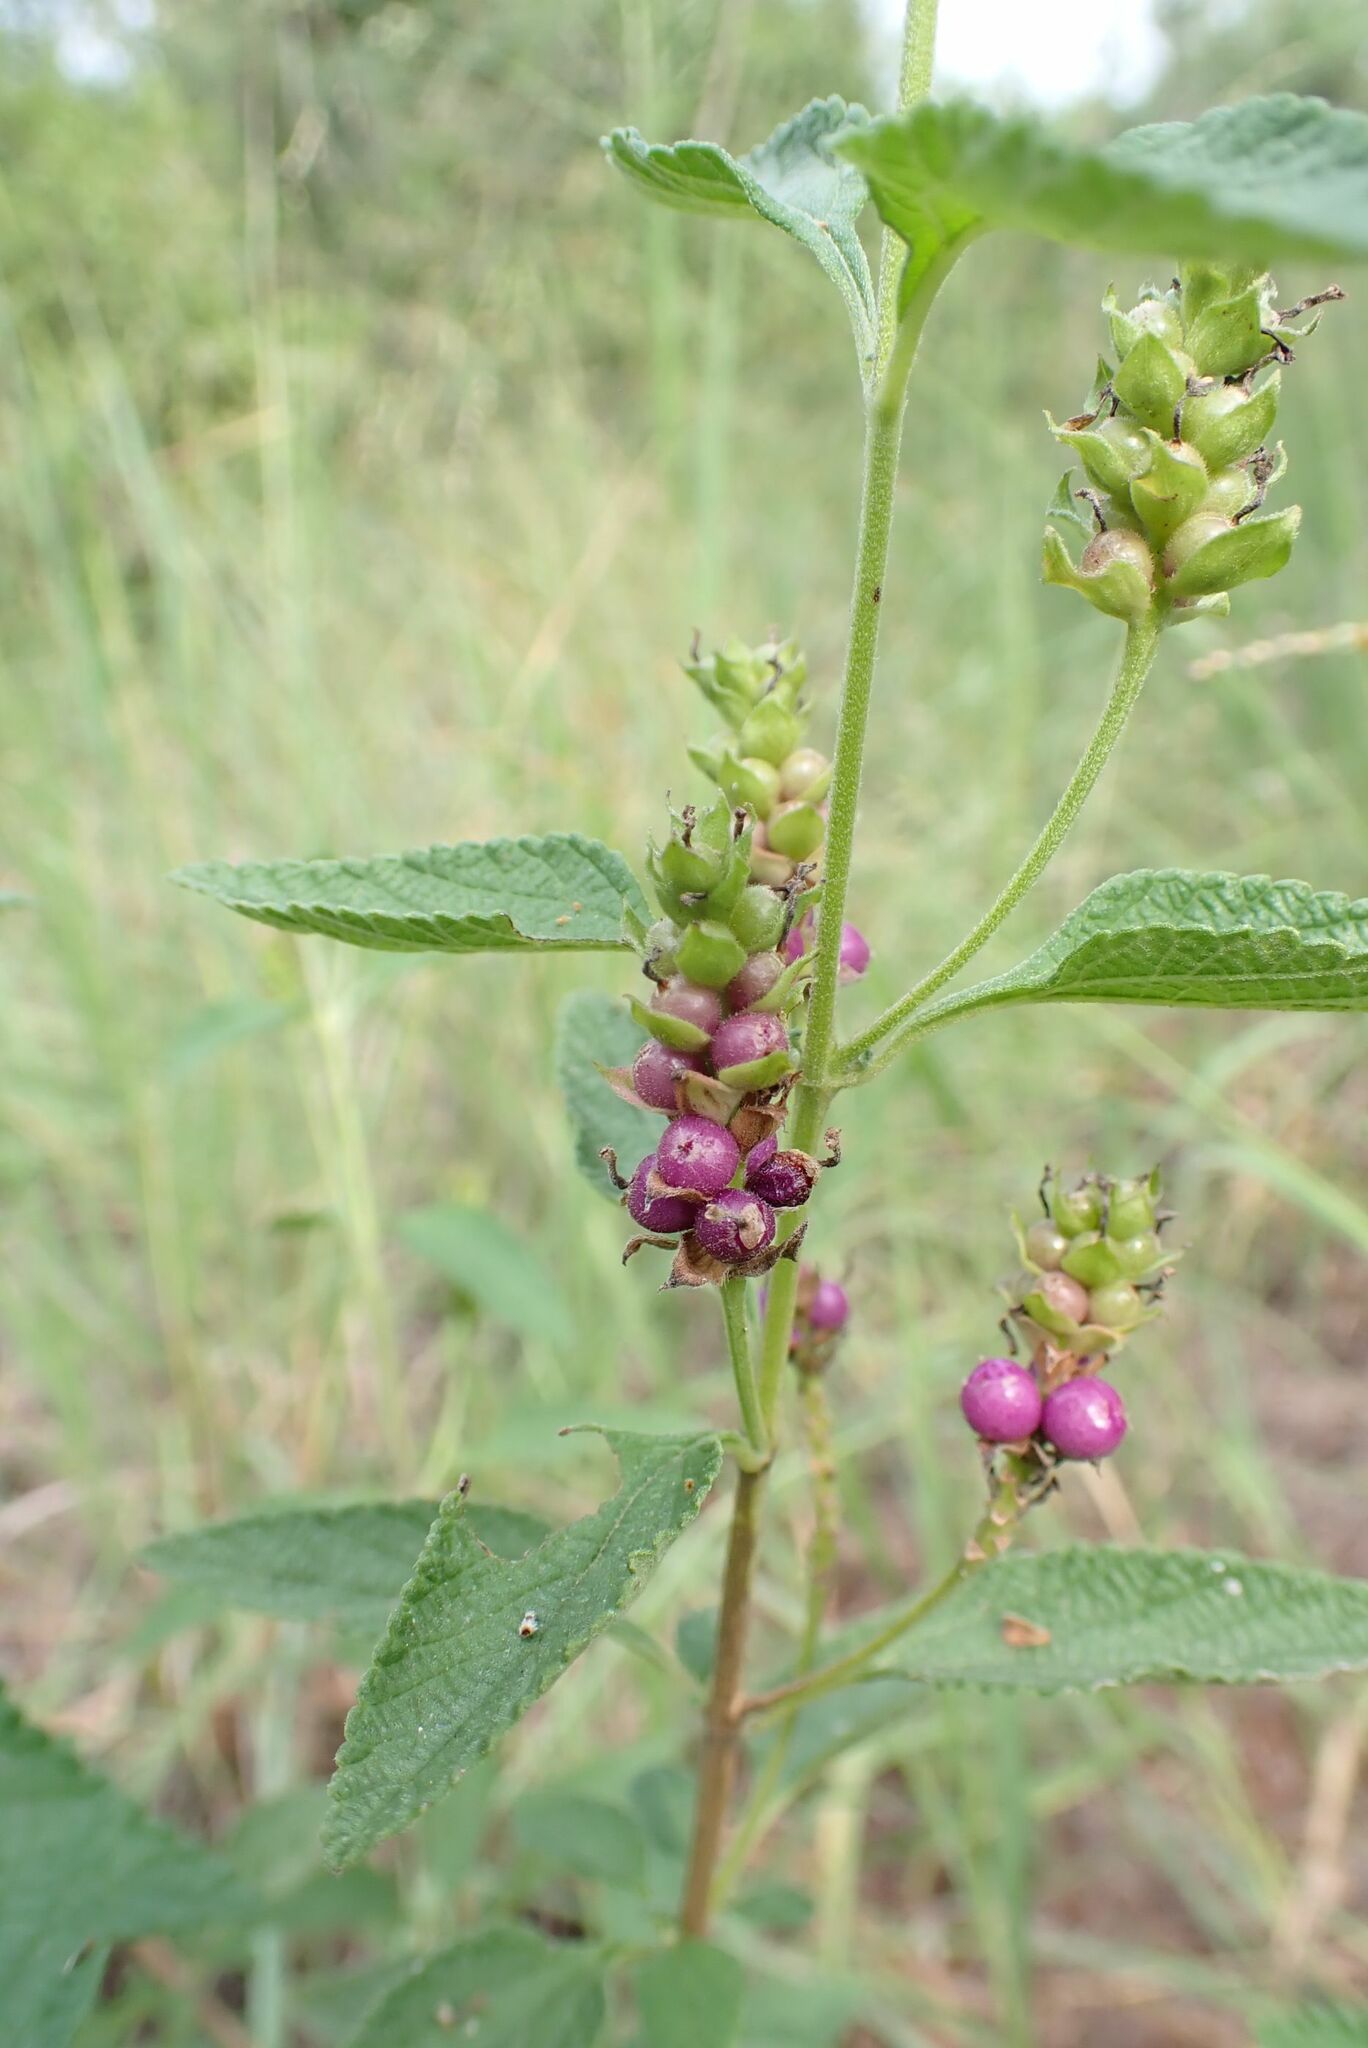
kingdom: Plantae
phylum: Tracheophyta
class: Magnoliopsida
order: Lamiales
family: Verbenaceae
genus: Lantana
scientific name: Lantana rugosa
